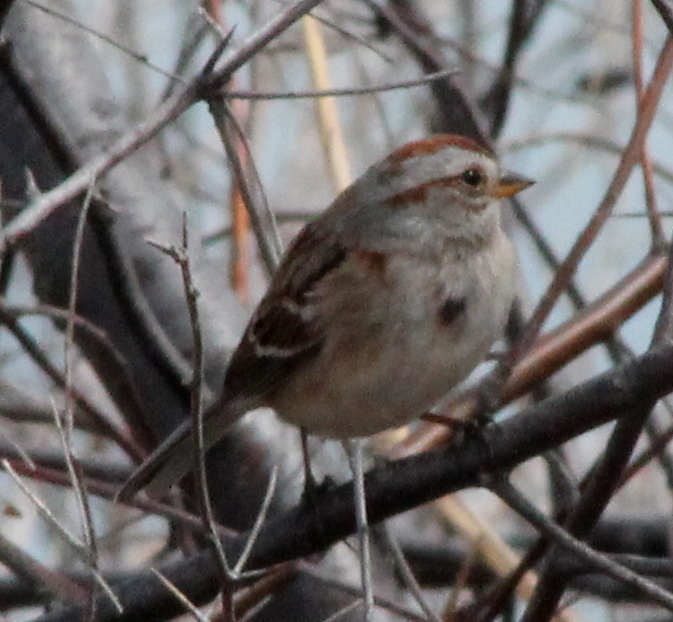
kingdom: Animalia
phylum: Chordata
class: Aves
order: Passeriformes
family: Passerellidae
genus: Spizelloides
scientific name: Spizelloides arborea
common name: American tree sparrow
